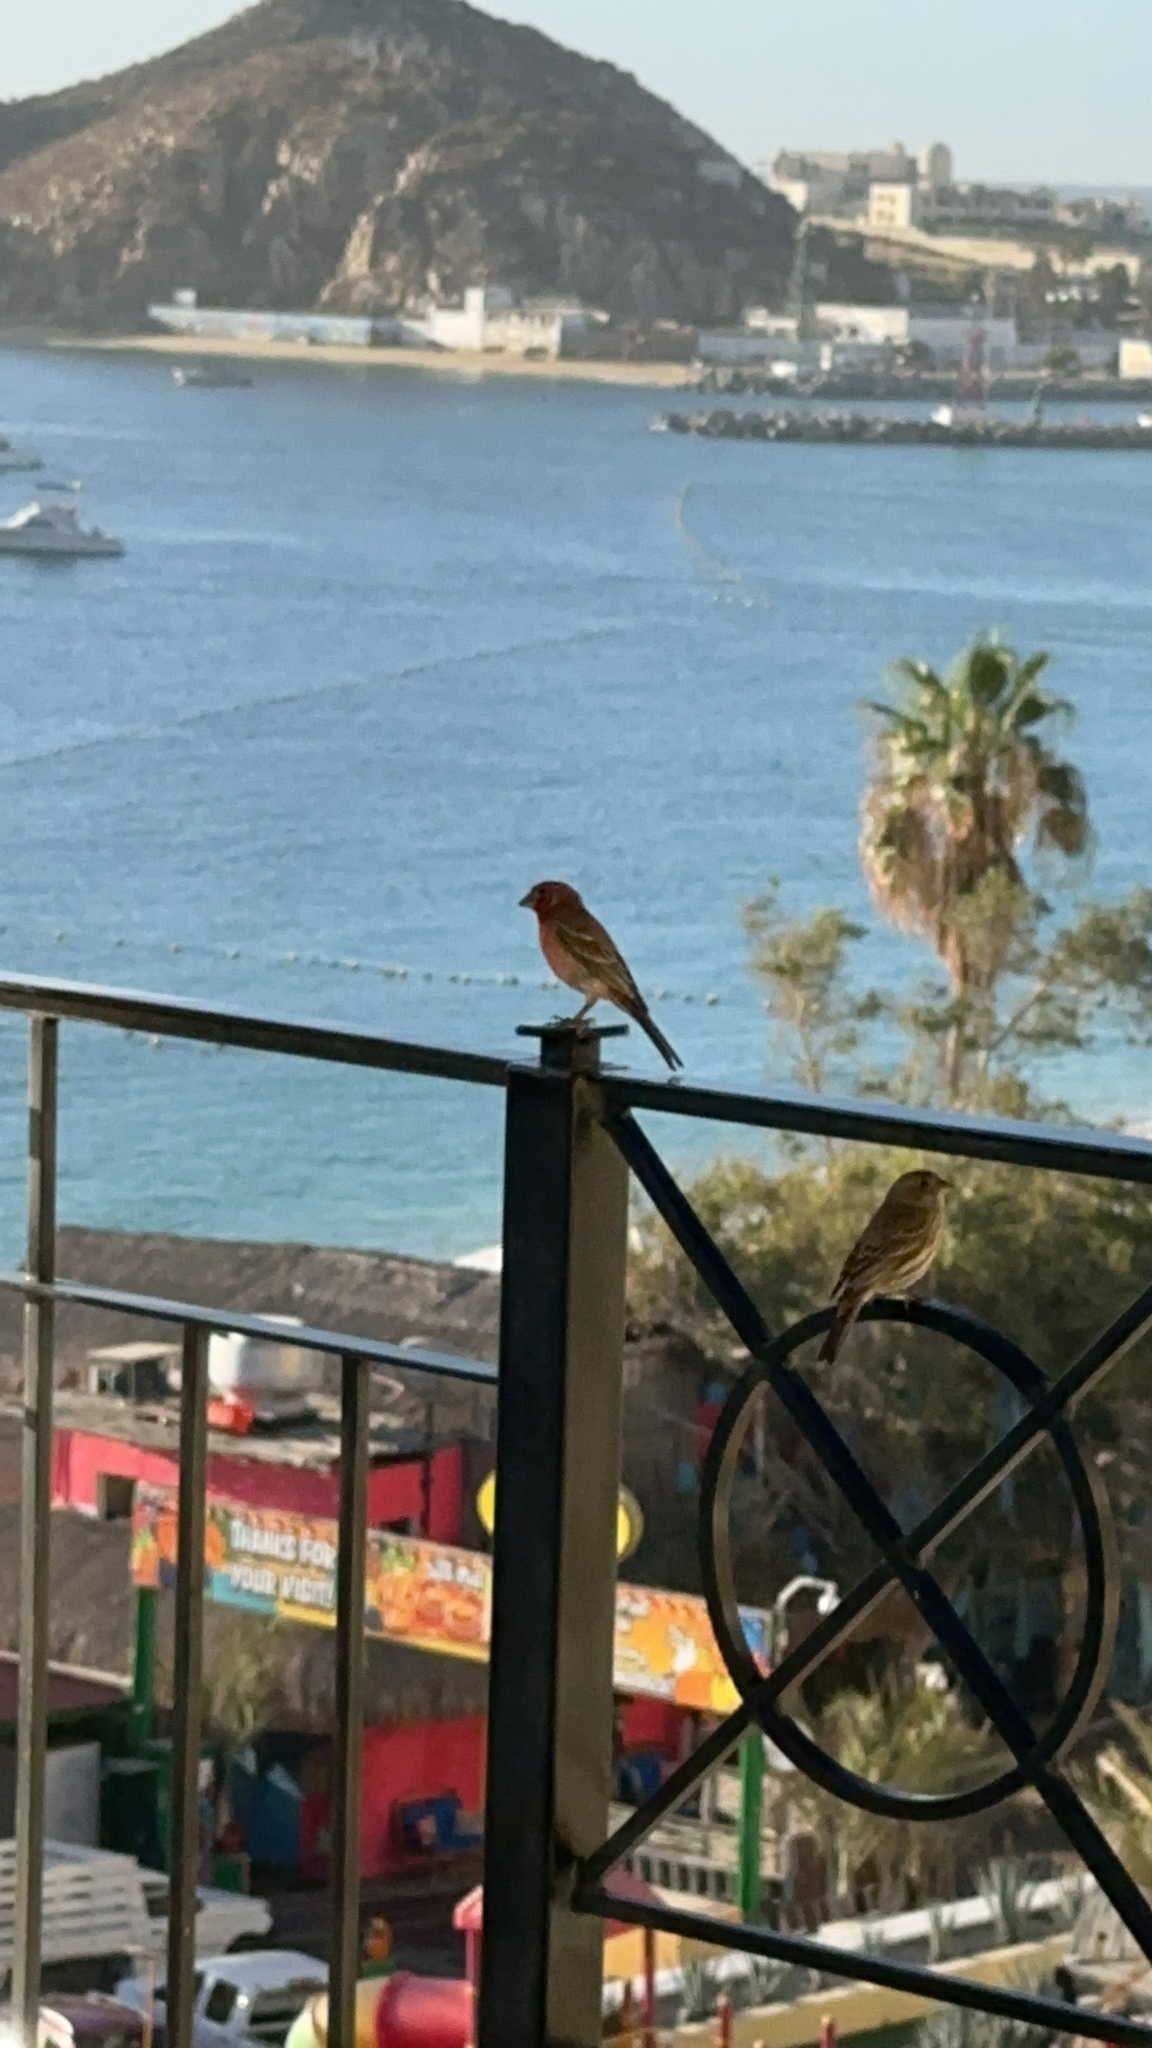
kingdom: Animalia
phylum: Chordata
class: Aves
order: Passeriformes
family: Fringillidae
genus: Haemorhous
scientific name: Haemorhous mexicanus
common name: House finch
